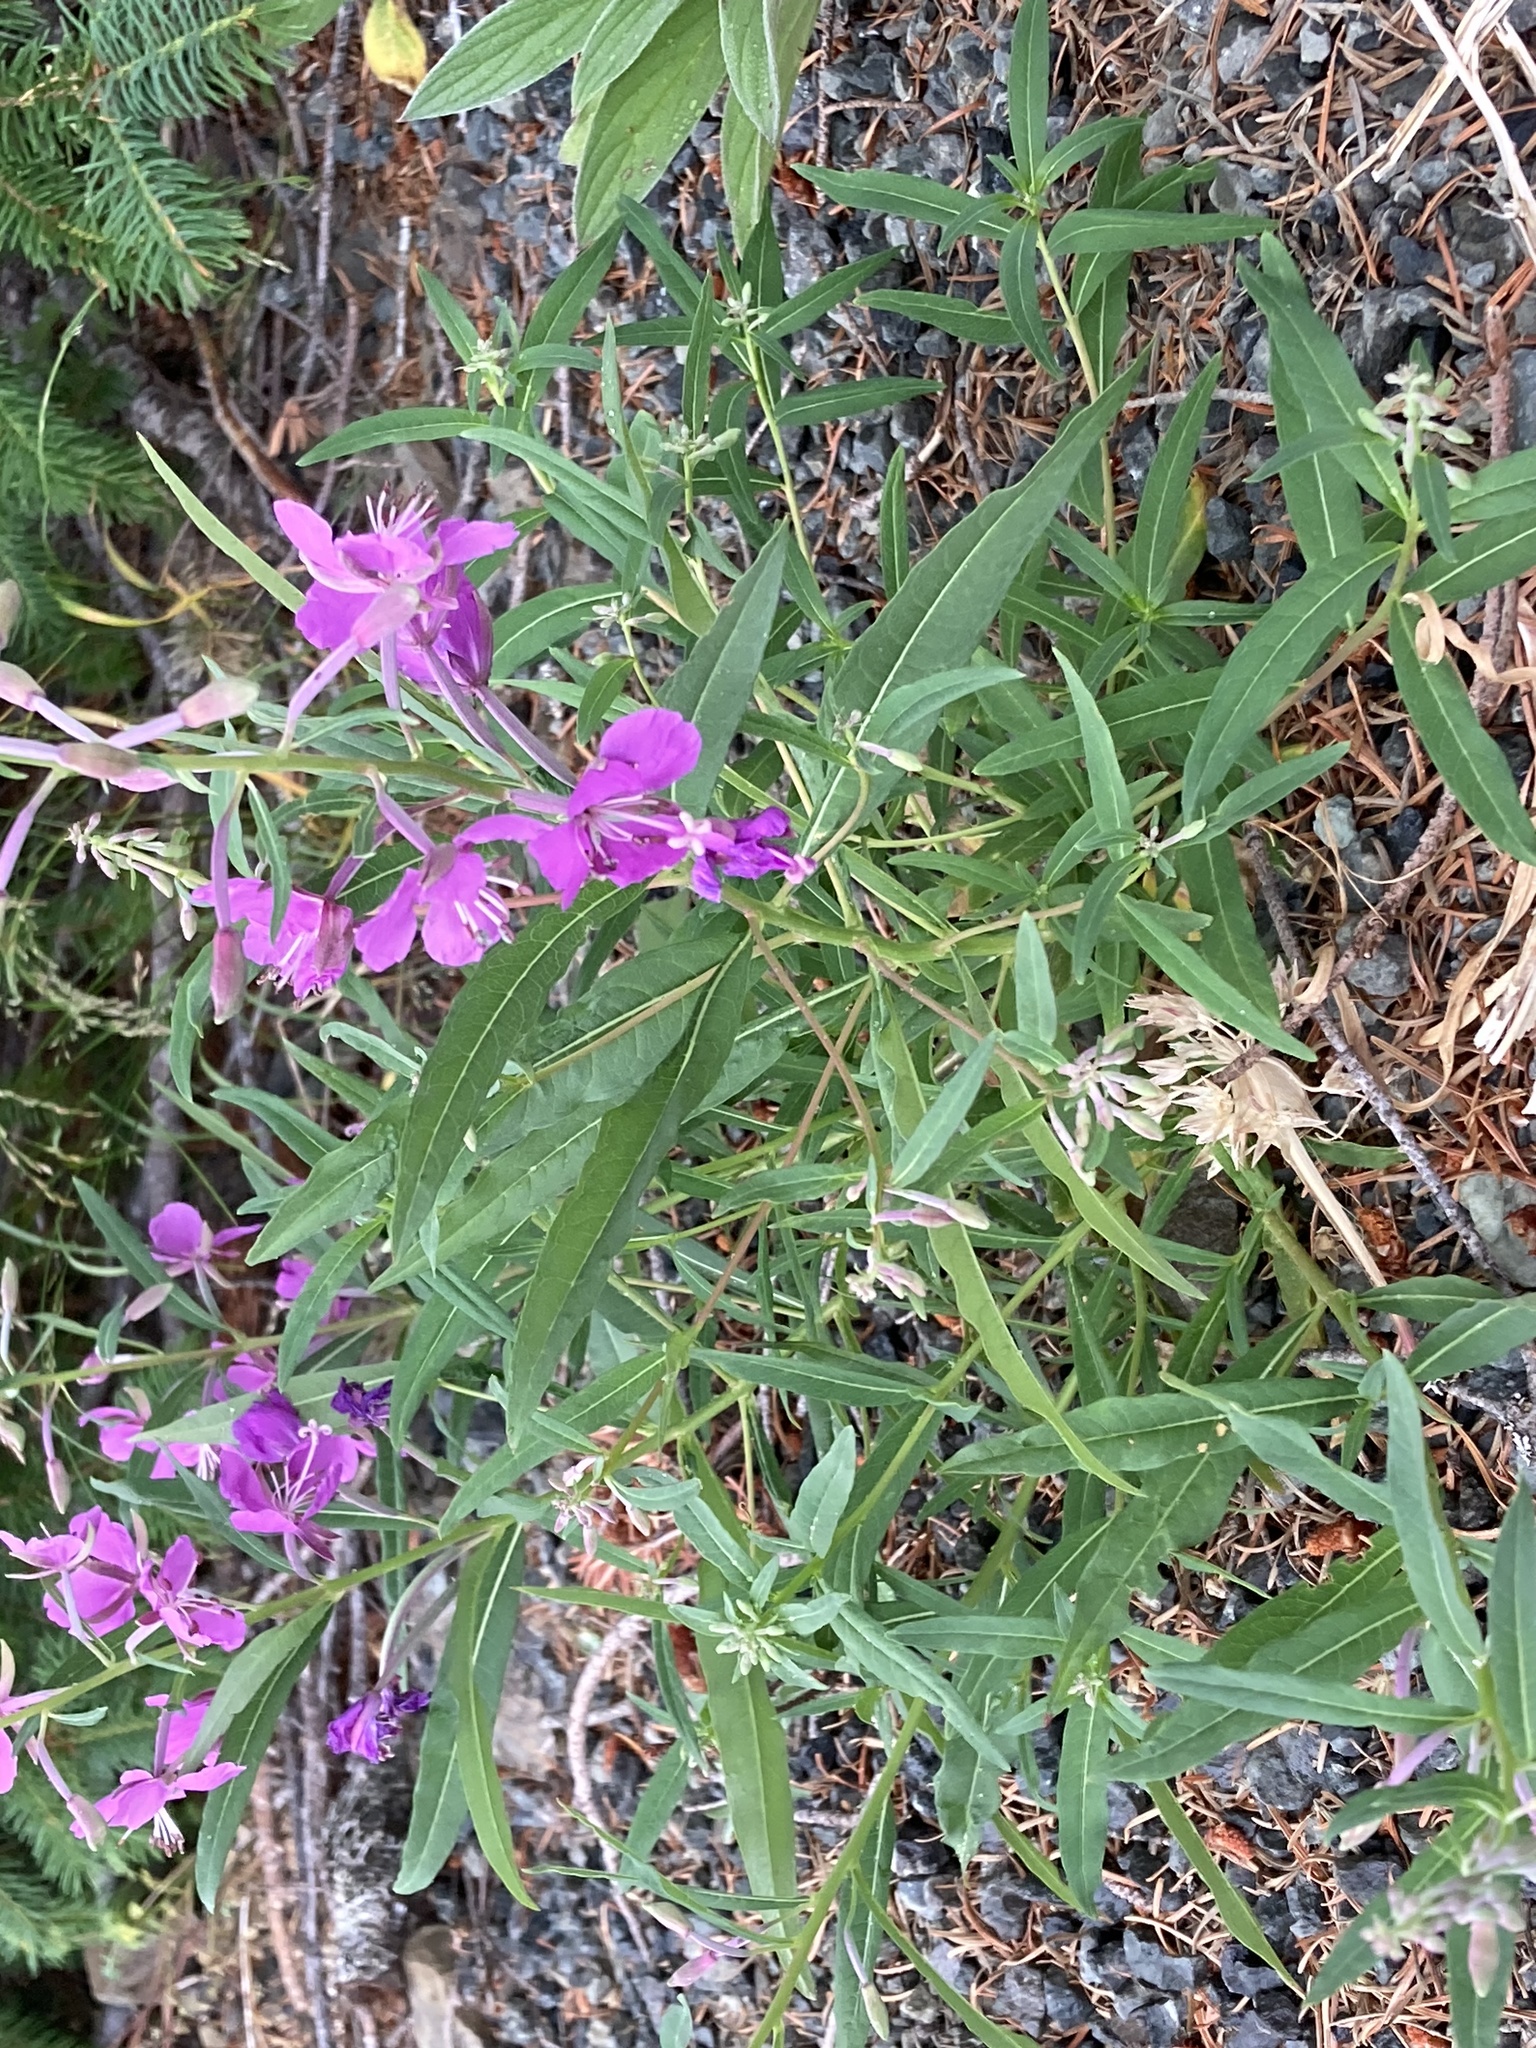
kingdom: Plantae
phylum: Tracheophyta
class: Magnoliopsida
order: Myrtales
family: Onagraceae
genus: Chamaenerion
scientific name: Chamaenerion angustifolium
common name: Fireweed
